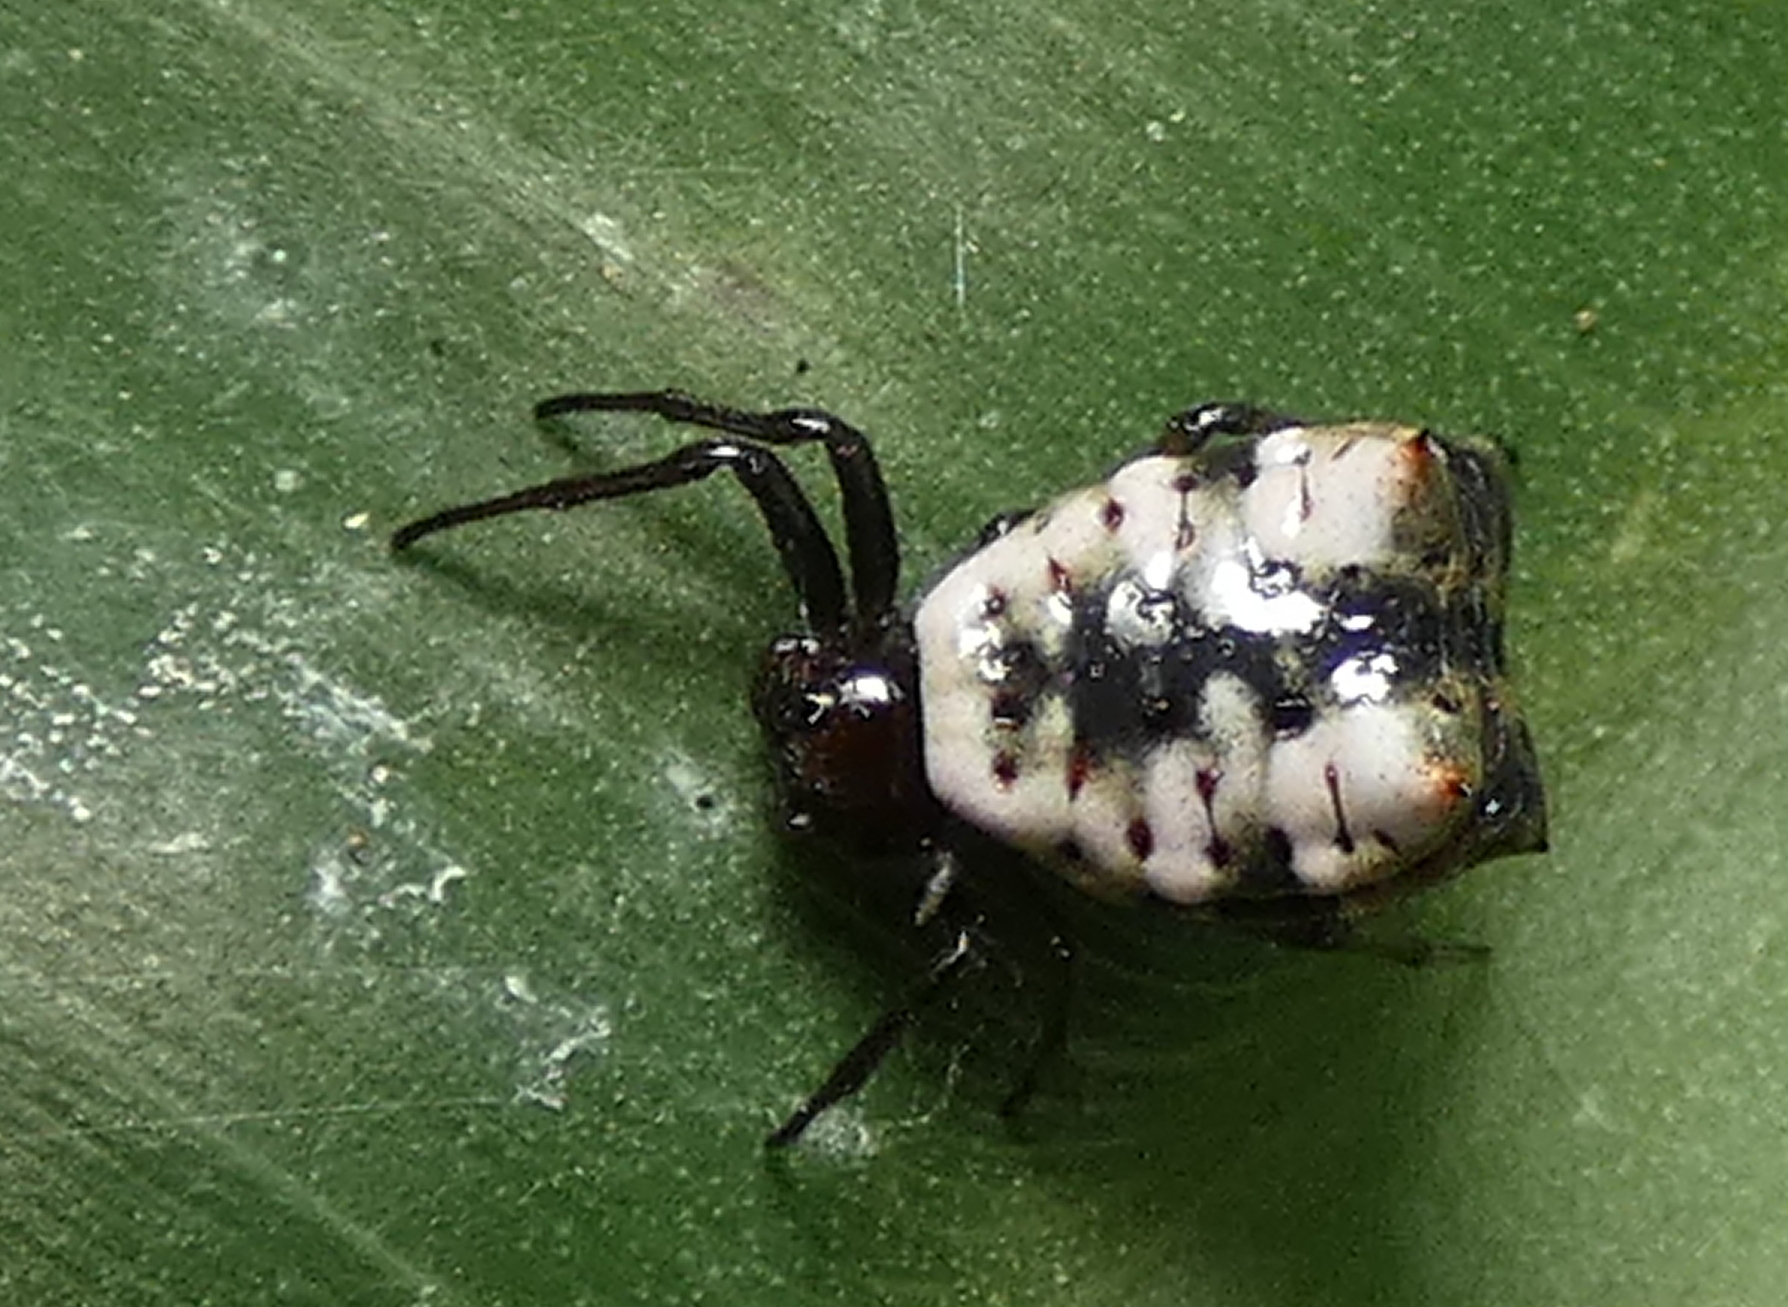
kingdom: Animalia
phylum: Arthropoda
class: Arachnida
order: Araneae
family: Araneidae
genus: Micrathena
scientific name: Micrathena patruelis
